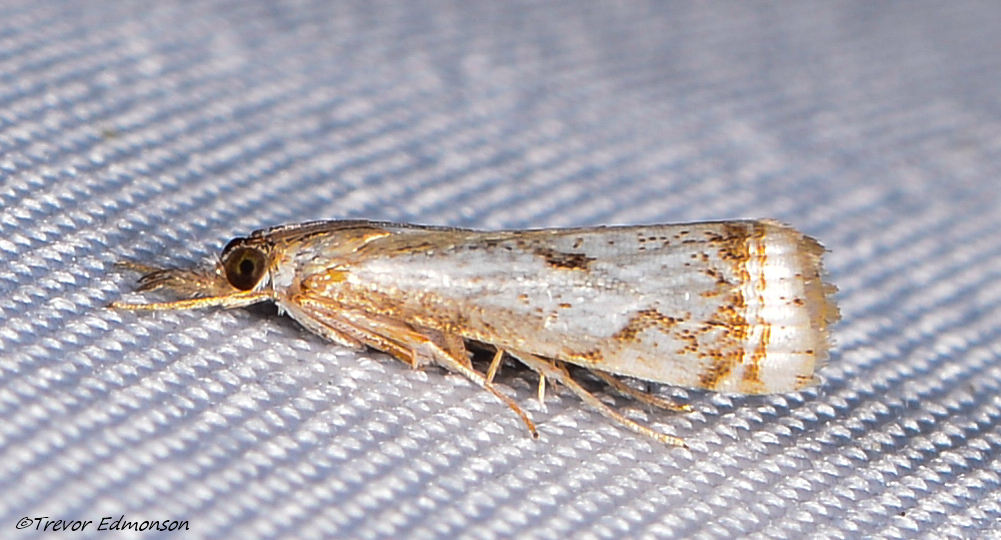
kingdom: Animalia
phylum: Arthropoda
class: Insecta
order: Lepidoptera
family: Crambidae
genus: Microcrambus
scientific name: Microcrambus elegans
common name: Elegant grass-veneer
